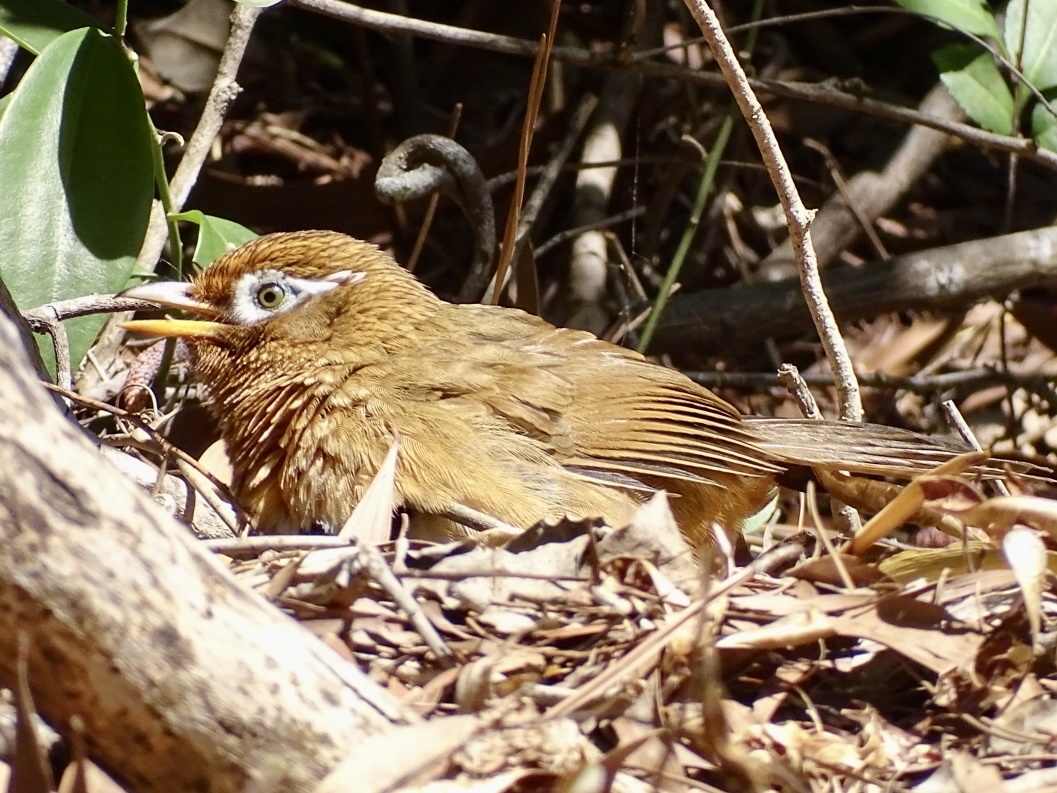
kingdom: Animalia
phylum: Chordata
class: Aves
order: Passeriformes
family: Leiothrichidae
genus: Garrulax
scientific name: Garrulax canorus
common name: Chinese hwamei
